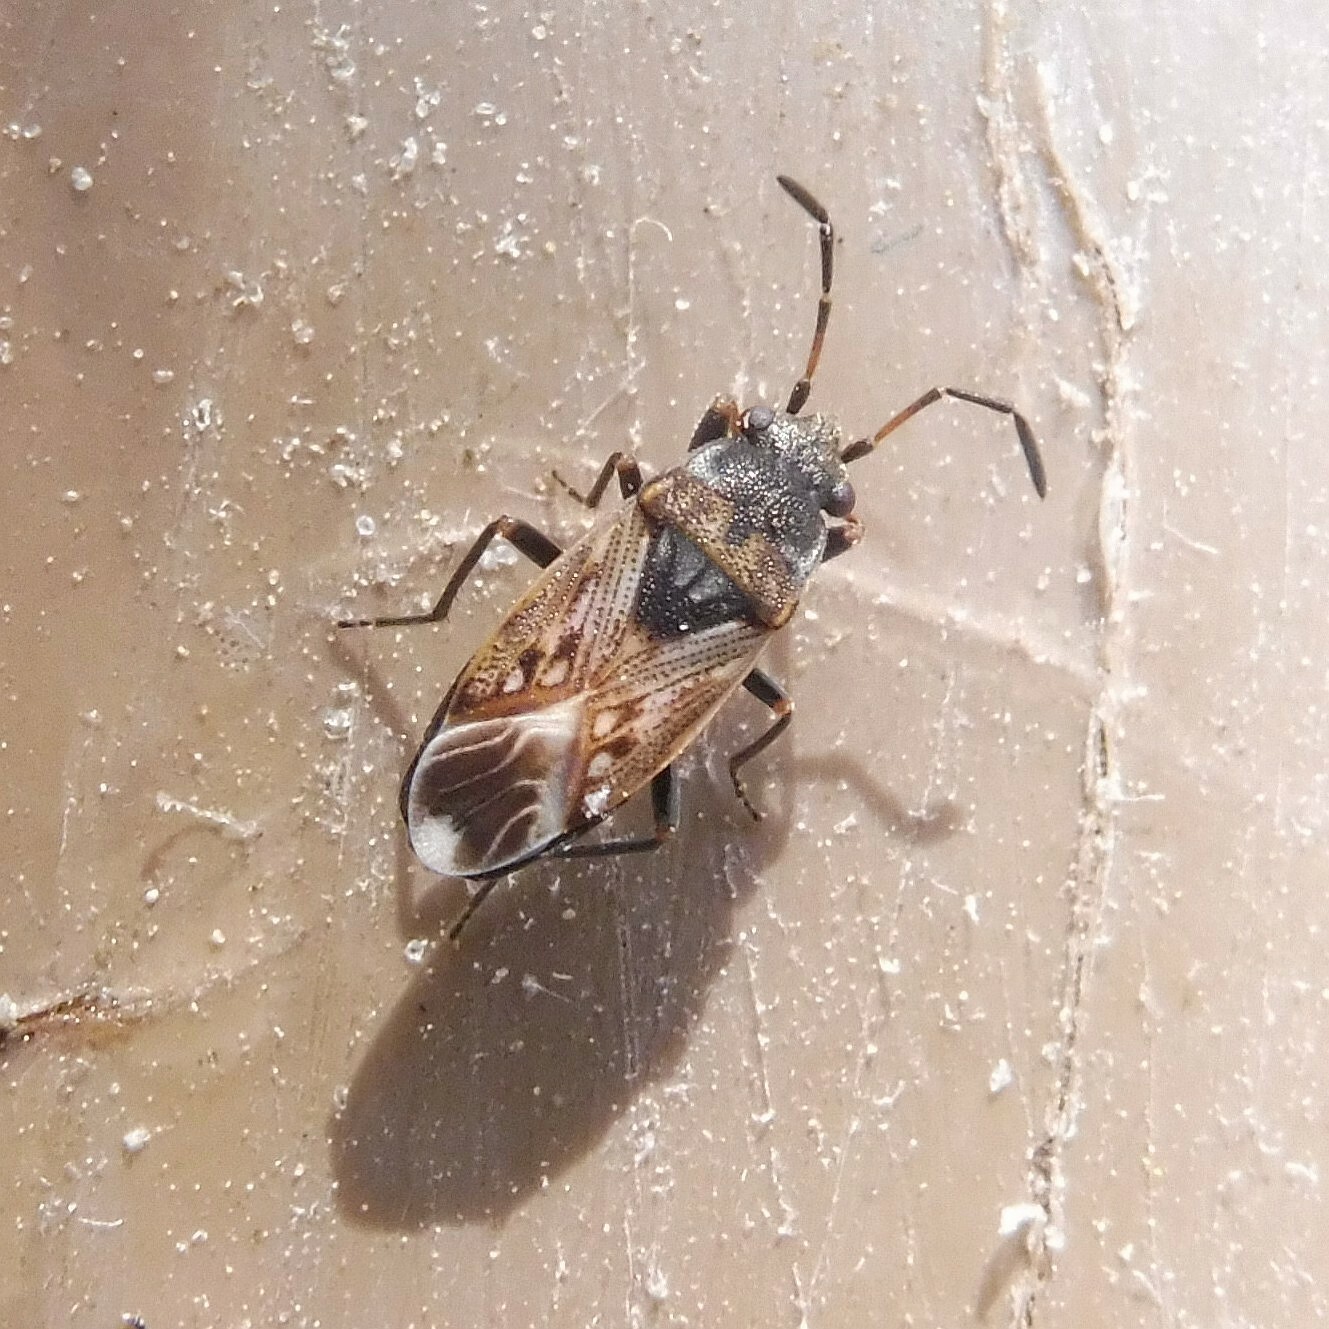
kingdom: Animalia
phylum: Arthropoda
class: Insecta
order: Hemiptera
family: Rhyparochromidae
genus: Peritrechus
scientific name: Peritrechus lundi
